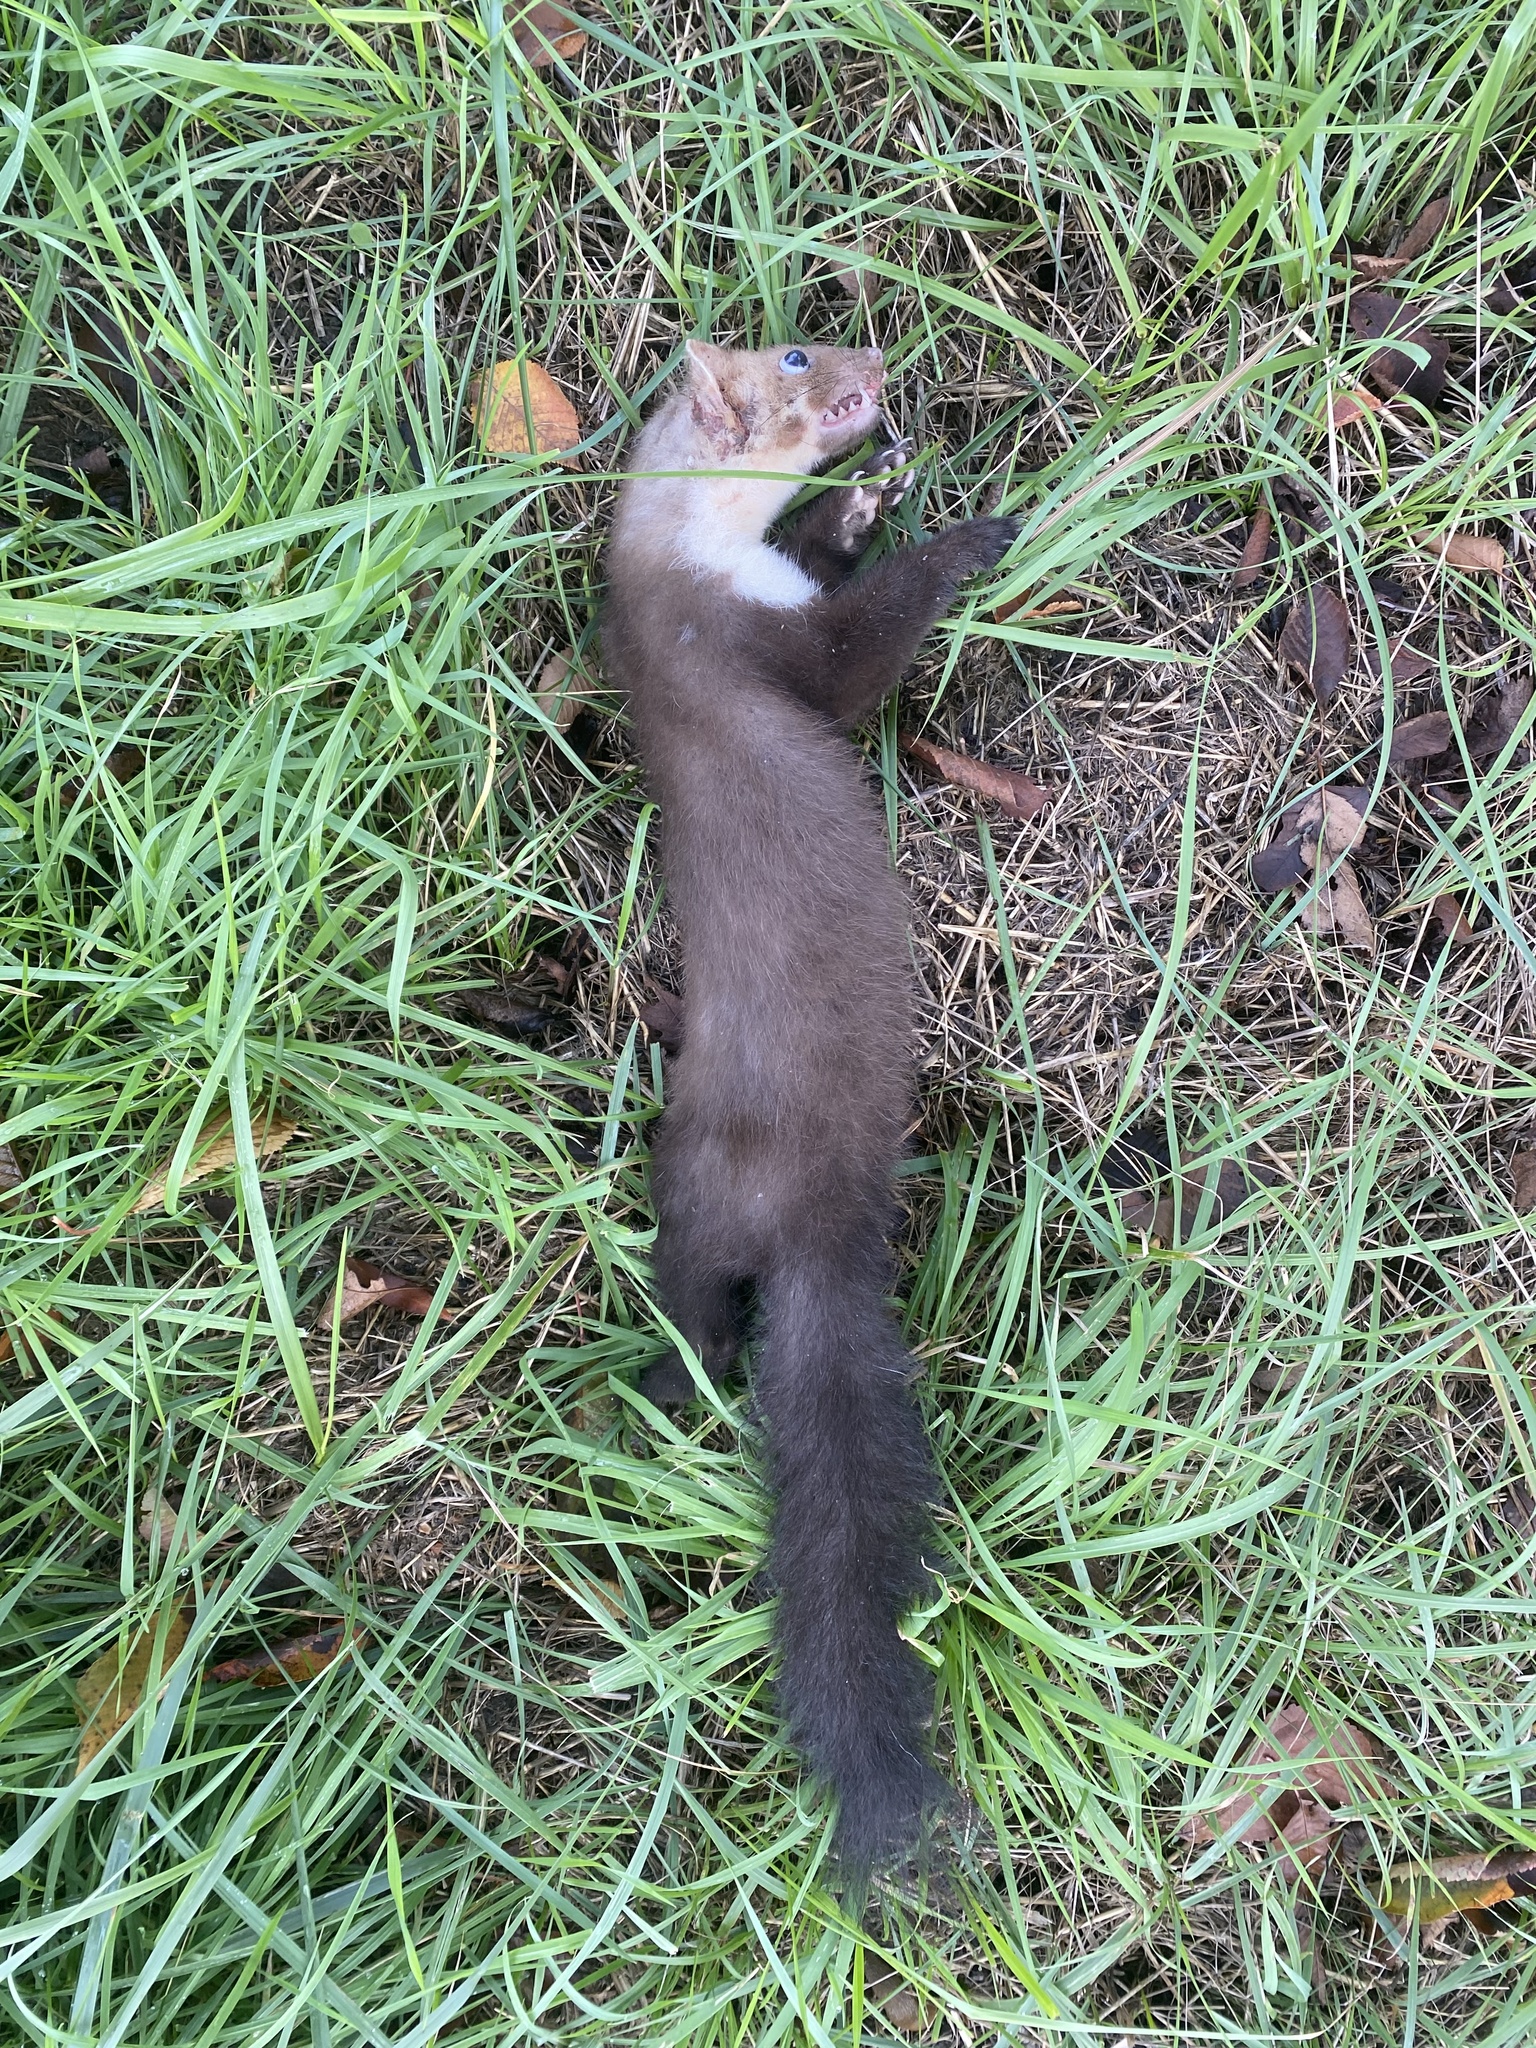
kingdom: Animalia
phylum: Chordata
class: Mammalia
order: Carnivora
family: Mustelidae
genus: Martes
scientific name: Martes foina
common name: Beech marten
